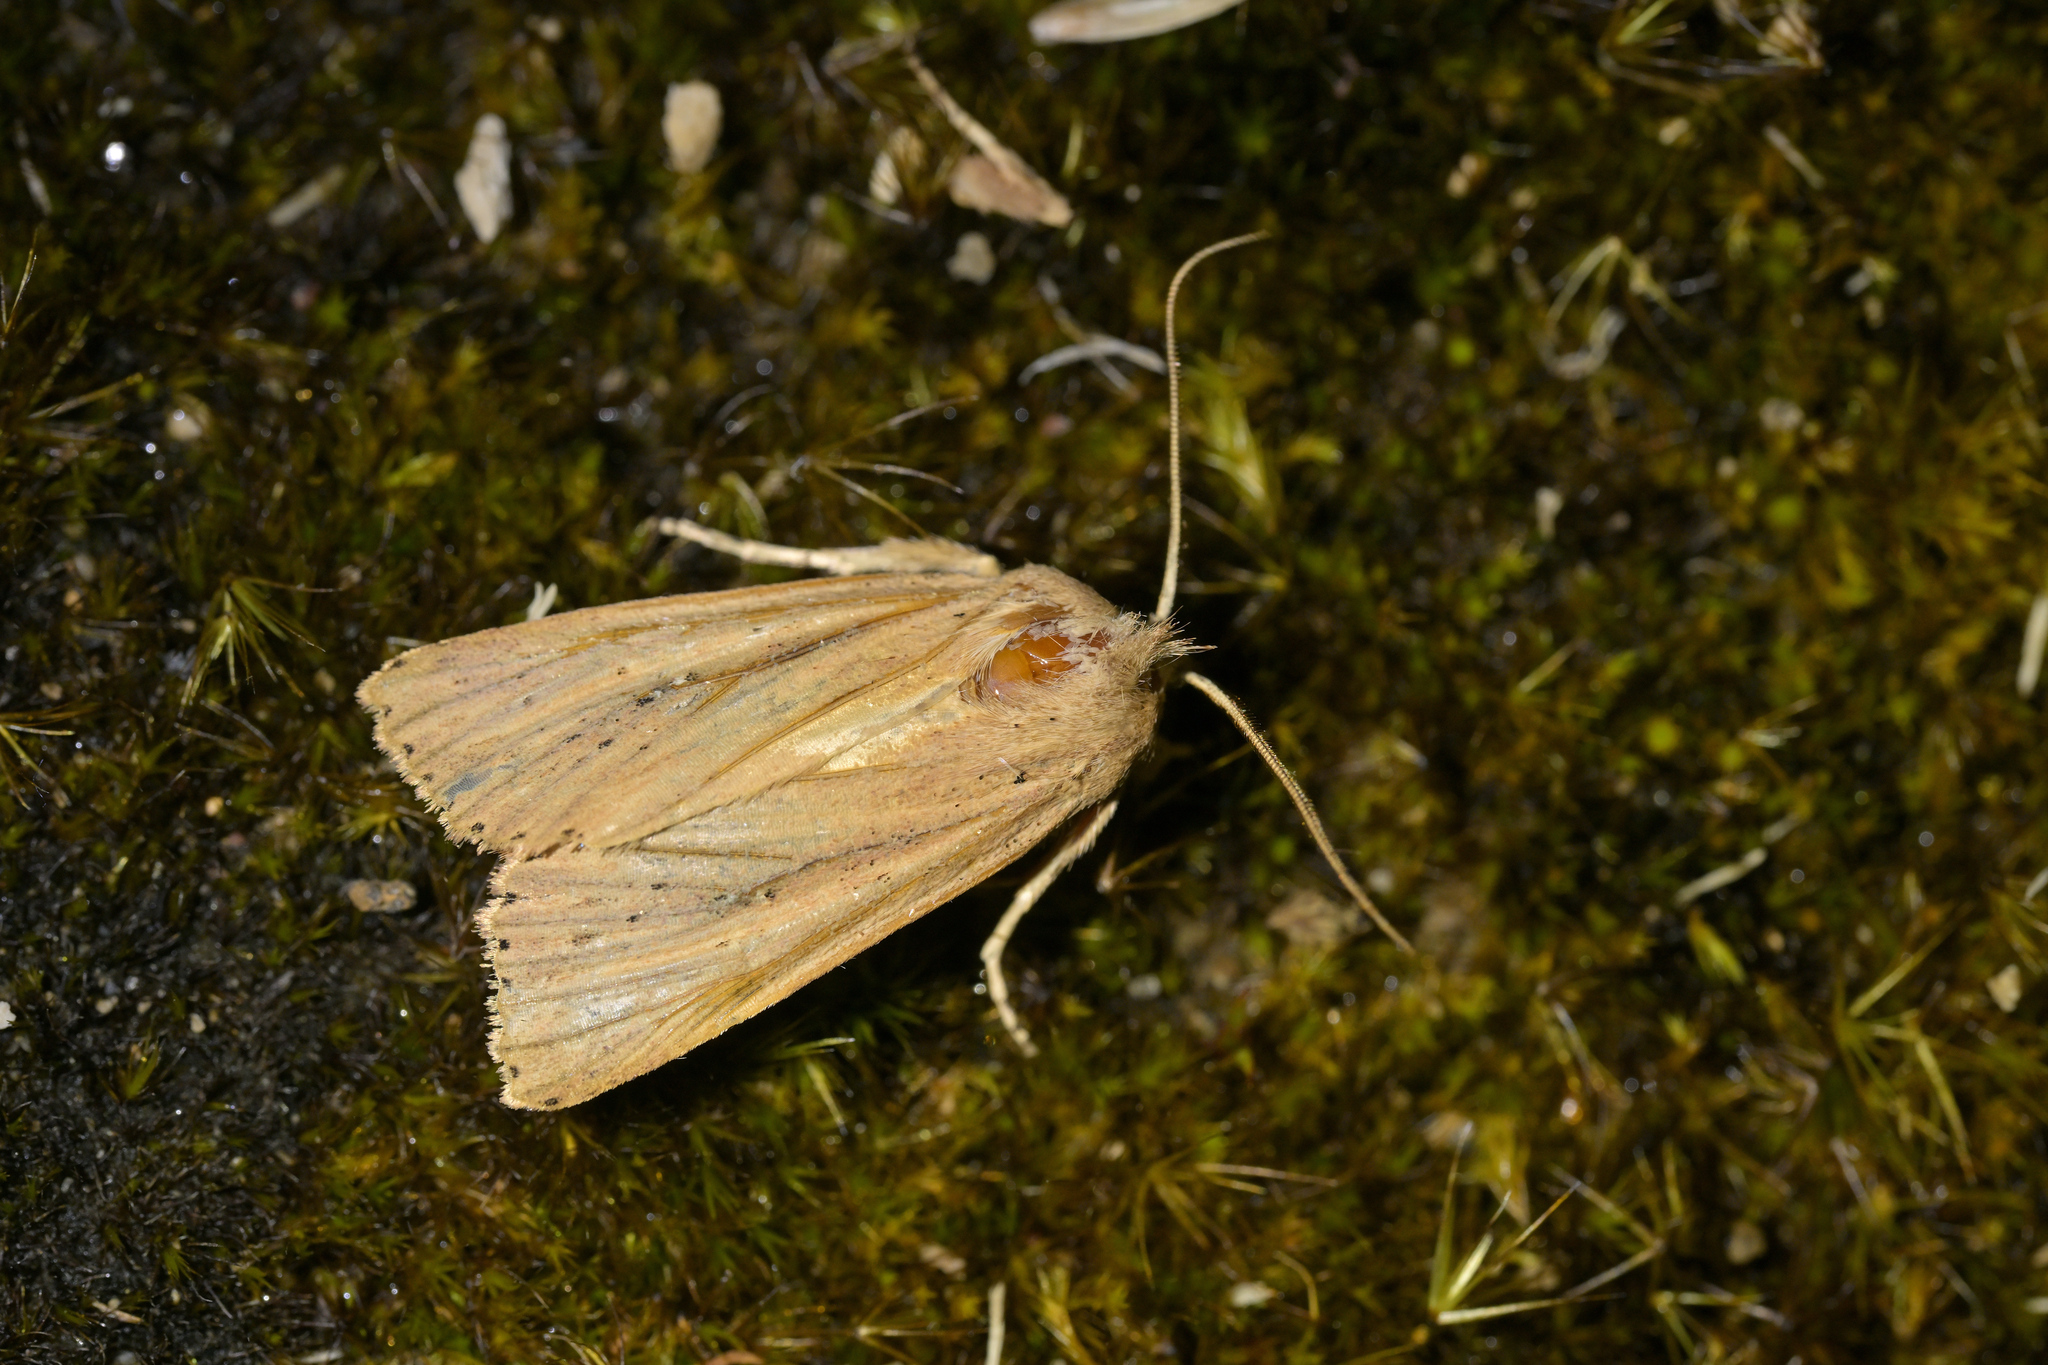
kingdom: Animalia
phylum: Arthropoda
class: Insecta
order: Lepidoptera
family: Noctuidae
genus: Ichneutica
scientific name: Ichneutica
